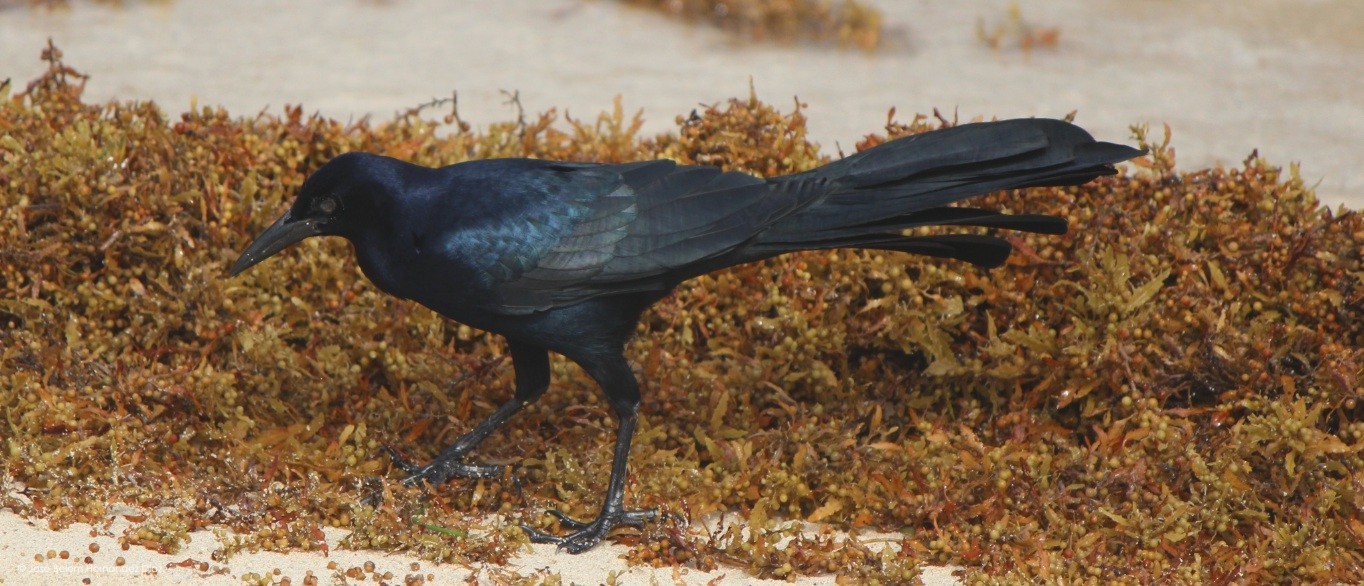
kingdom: Animalia
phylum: Chordata
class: Aves
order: Passeriformes
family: Icteridae
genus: Quiscalus
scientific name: Quiscalus mexicanus
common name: Great-tailed grackle
